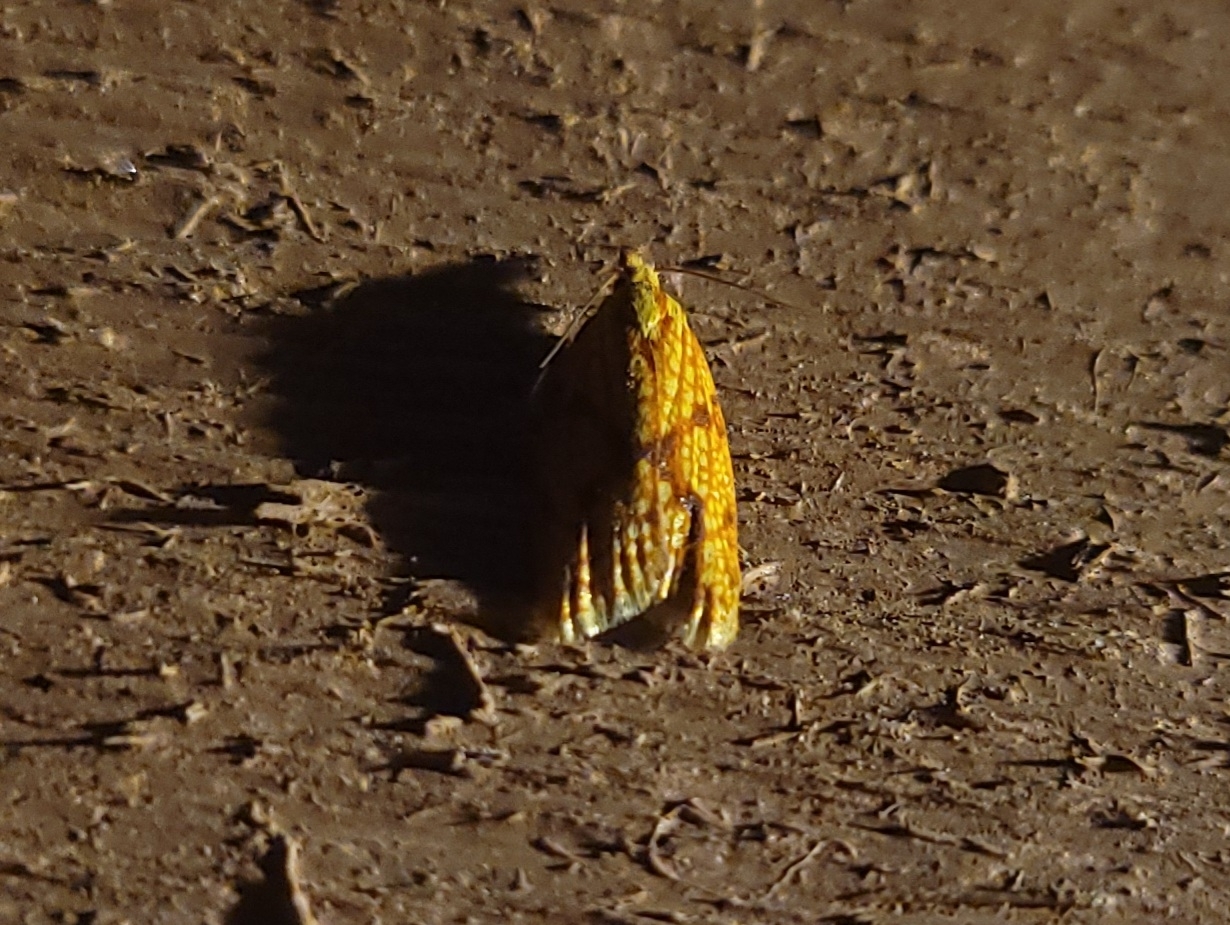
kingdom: Animalia
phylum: Arthropoda
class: Insecta
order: Lepidoptera
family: Tortricidae
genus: Sparganothis
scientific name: Sparganothis sulfureana
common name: Sparganothis fruitworm moth
